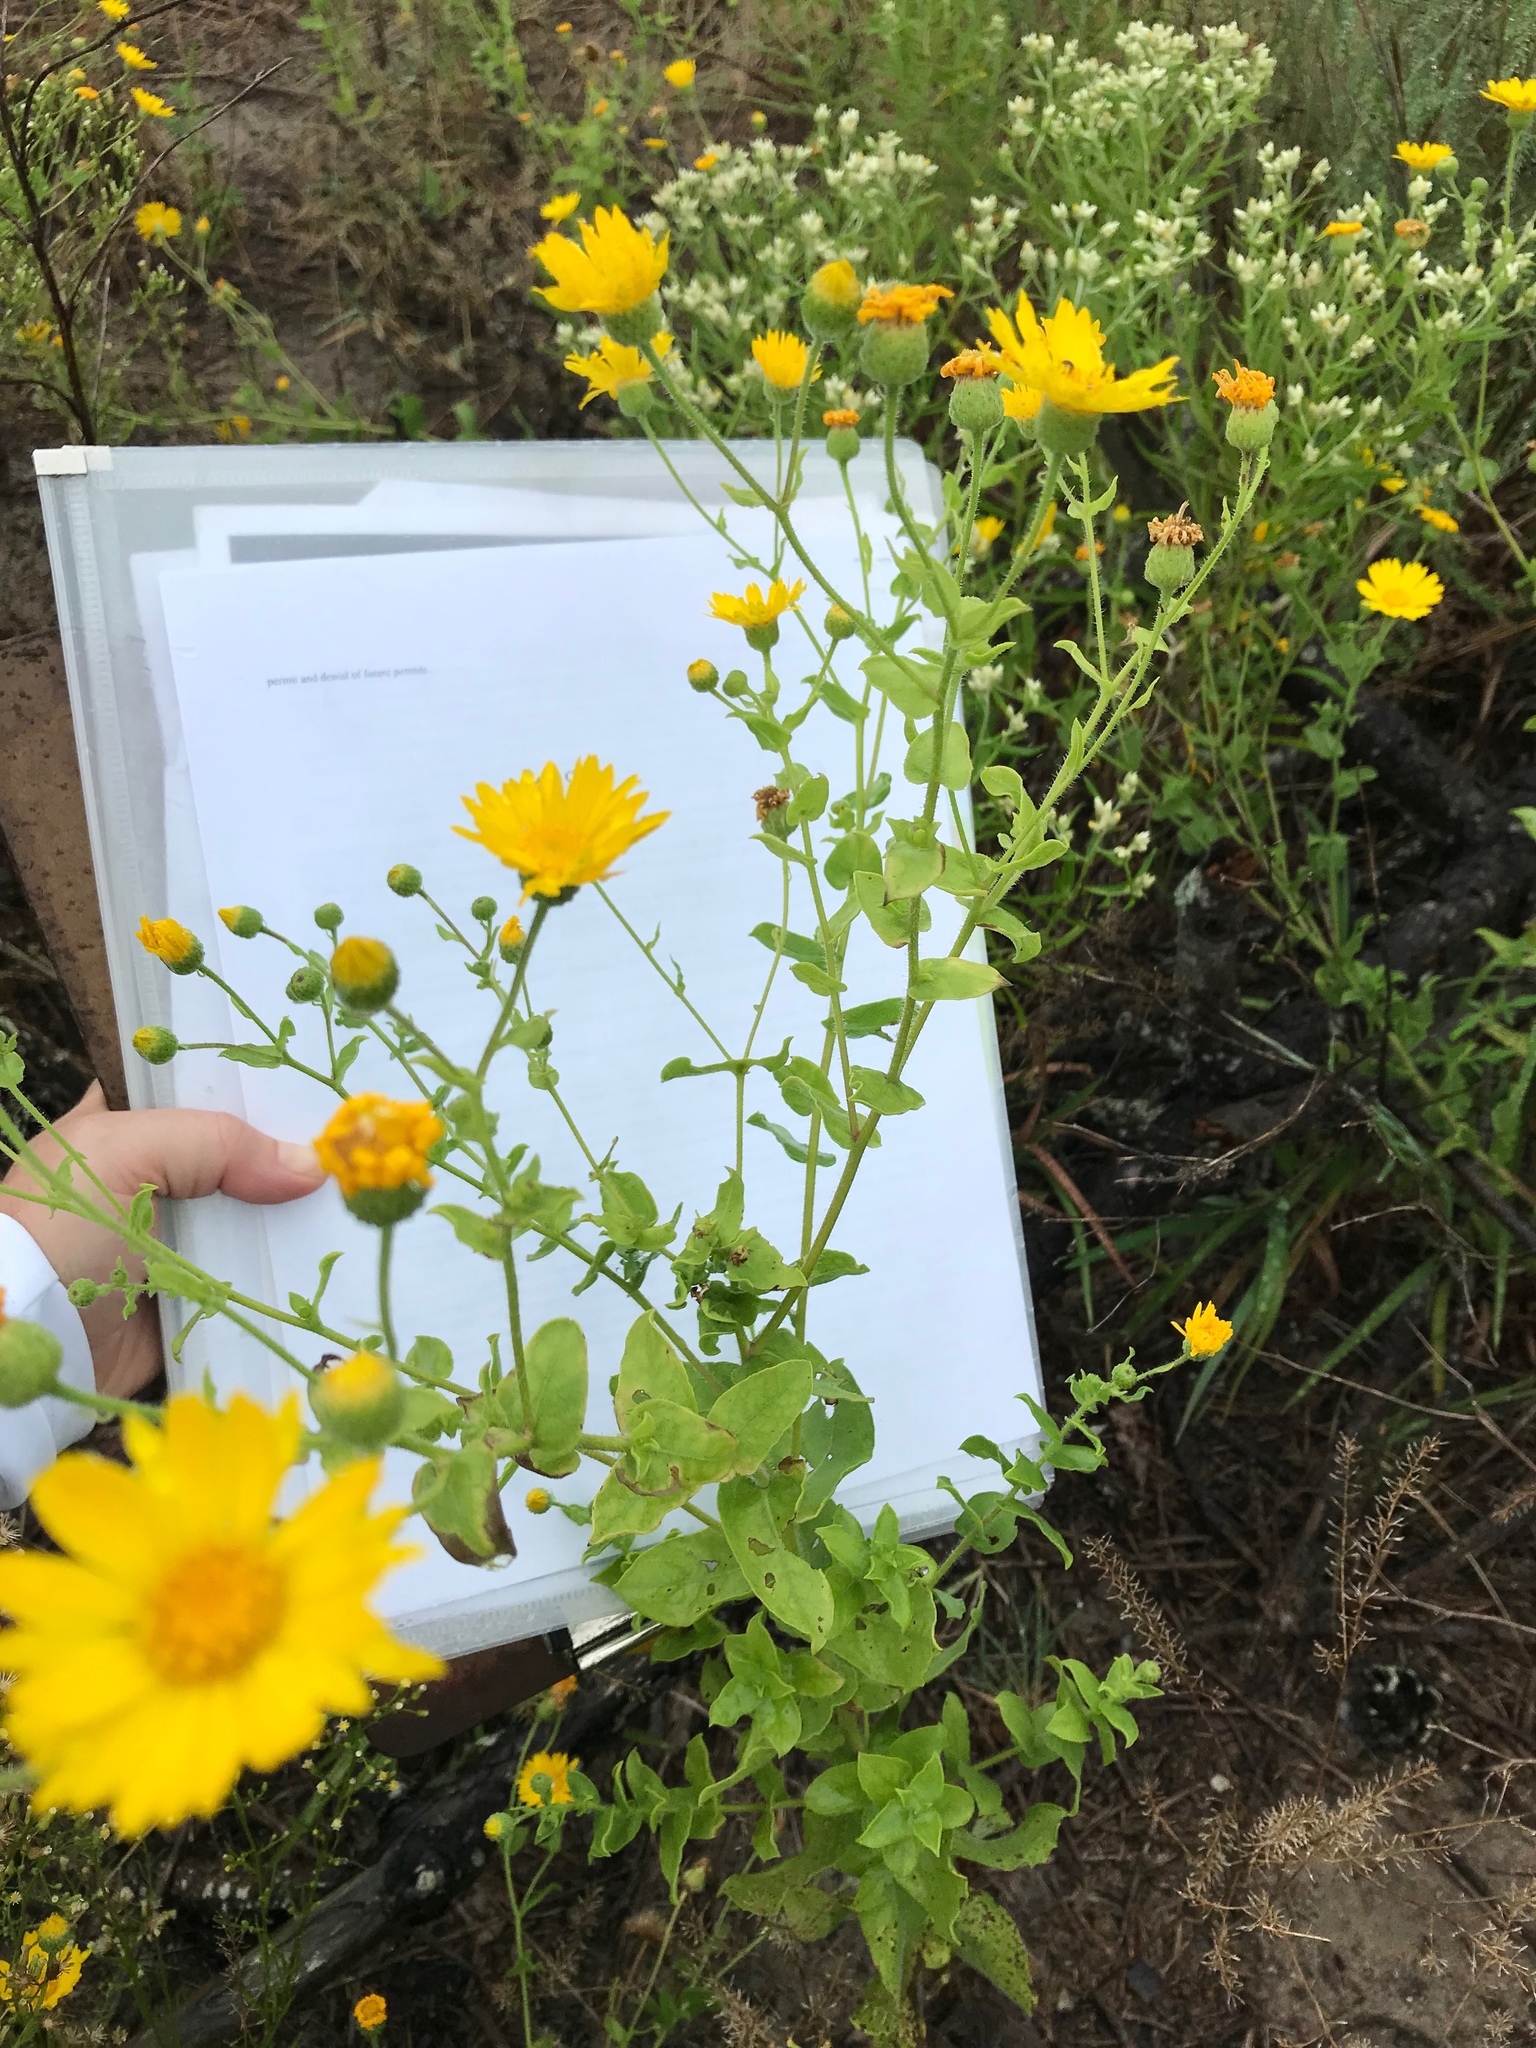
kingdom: Plantae
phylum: Tracheophyta
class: Magnoliopsida
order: Asterales
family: Asteraceae
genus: Heterotheca
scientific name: Heterotheca subaxillaris
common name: Camphorweed
